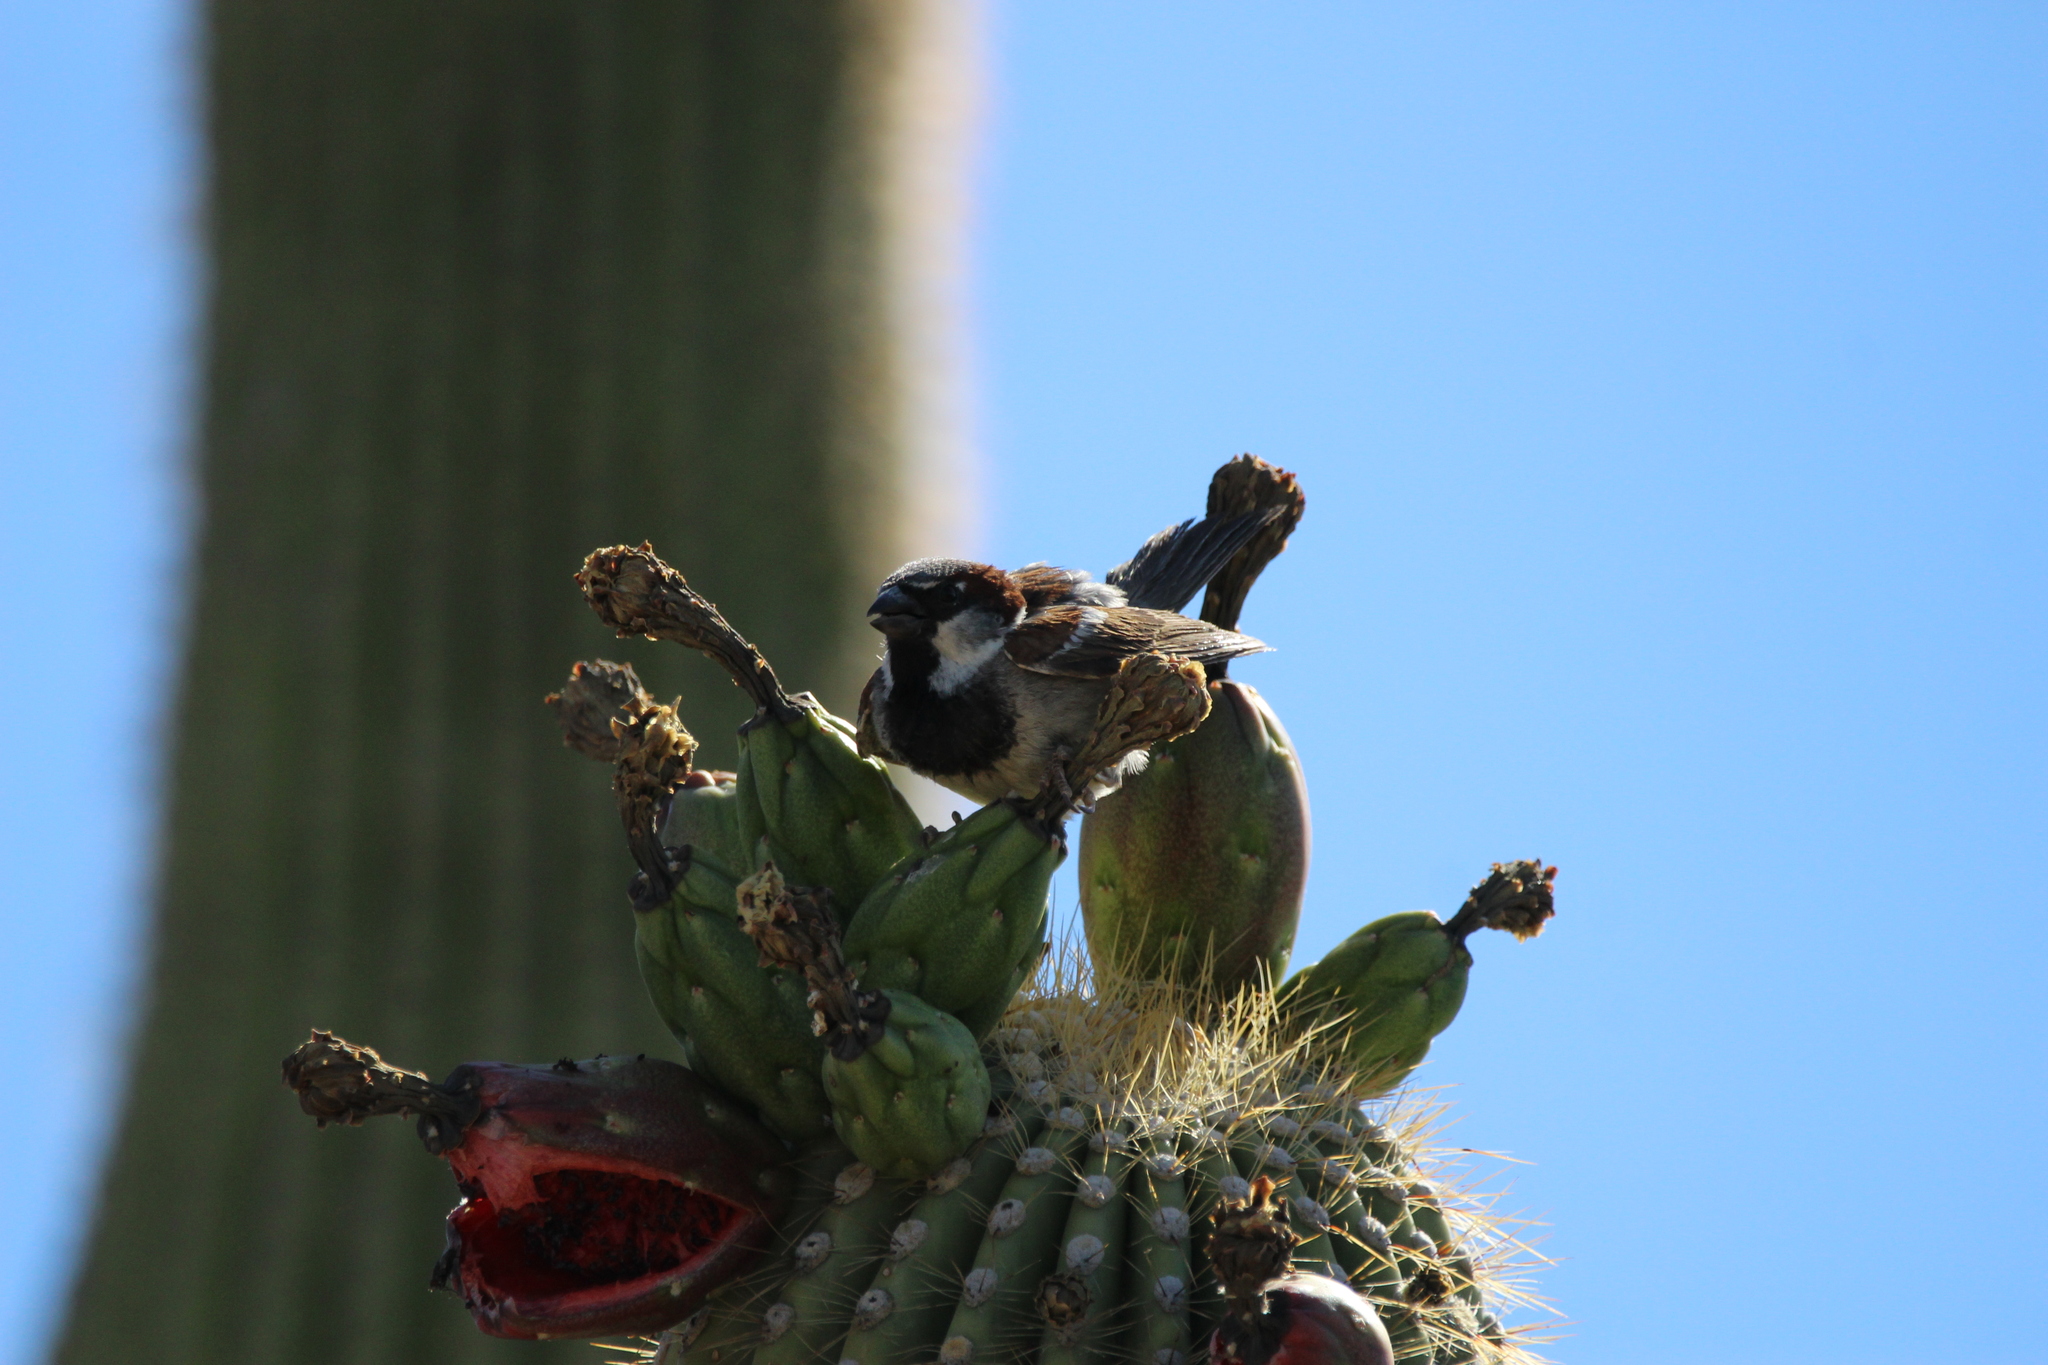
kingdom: Animalia
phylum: Chordata
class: Aves
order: Passeriformes
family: Passeridae
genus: Passer
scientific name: Passer domesticus
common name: House sparrow
